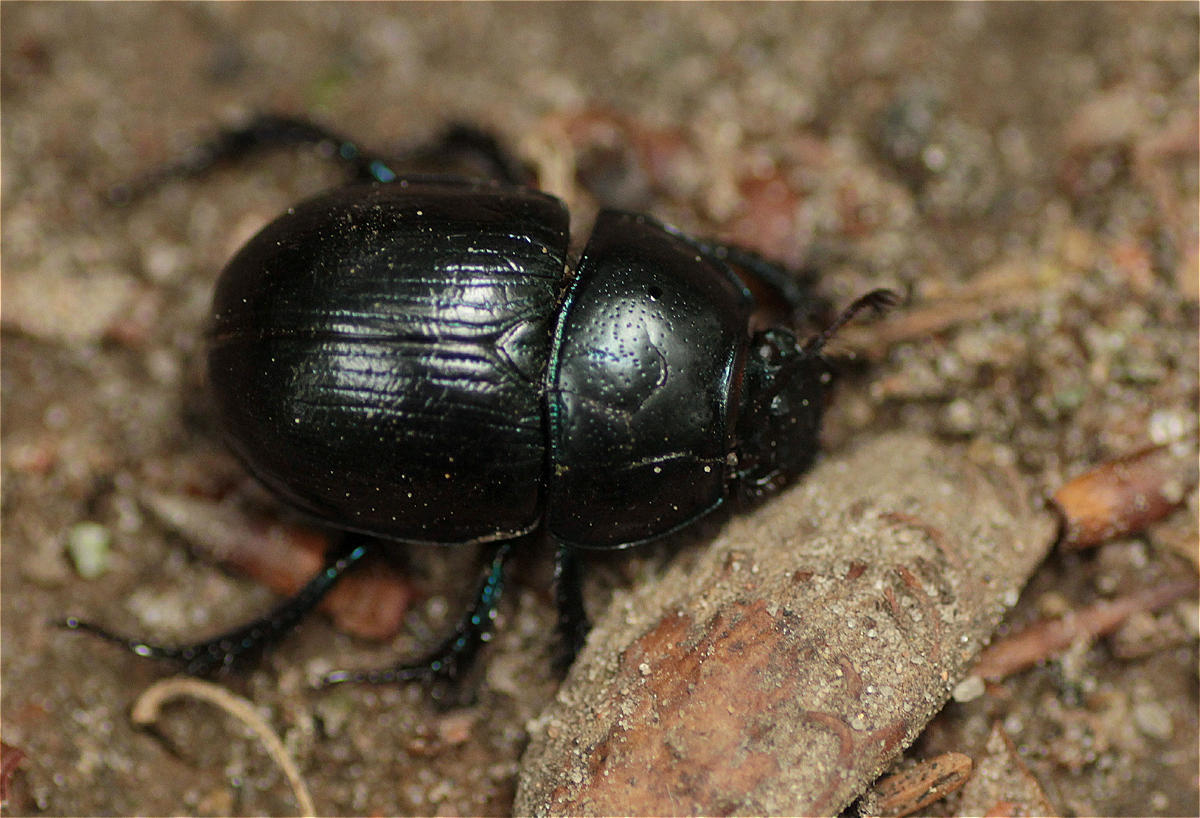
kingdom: Animalia
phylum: Arthropoda
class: Insecta
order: Coleoptera
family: Geotrupidae
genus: Anoplotrupes
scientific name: Anoplotrupes stercorosus
